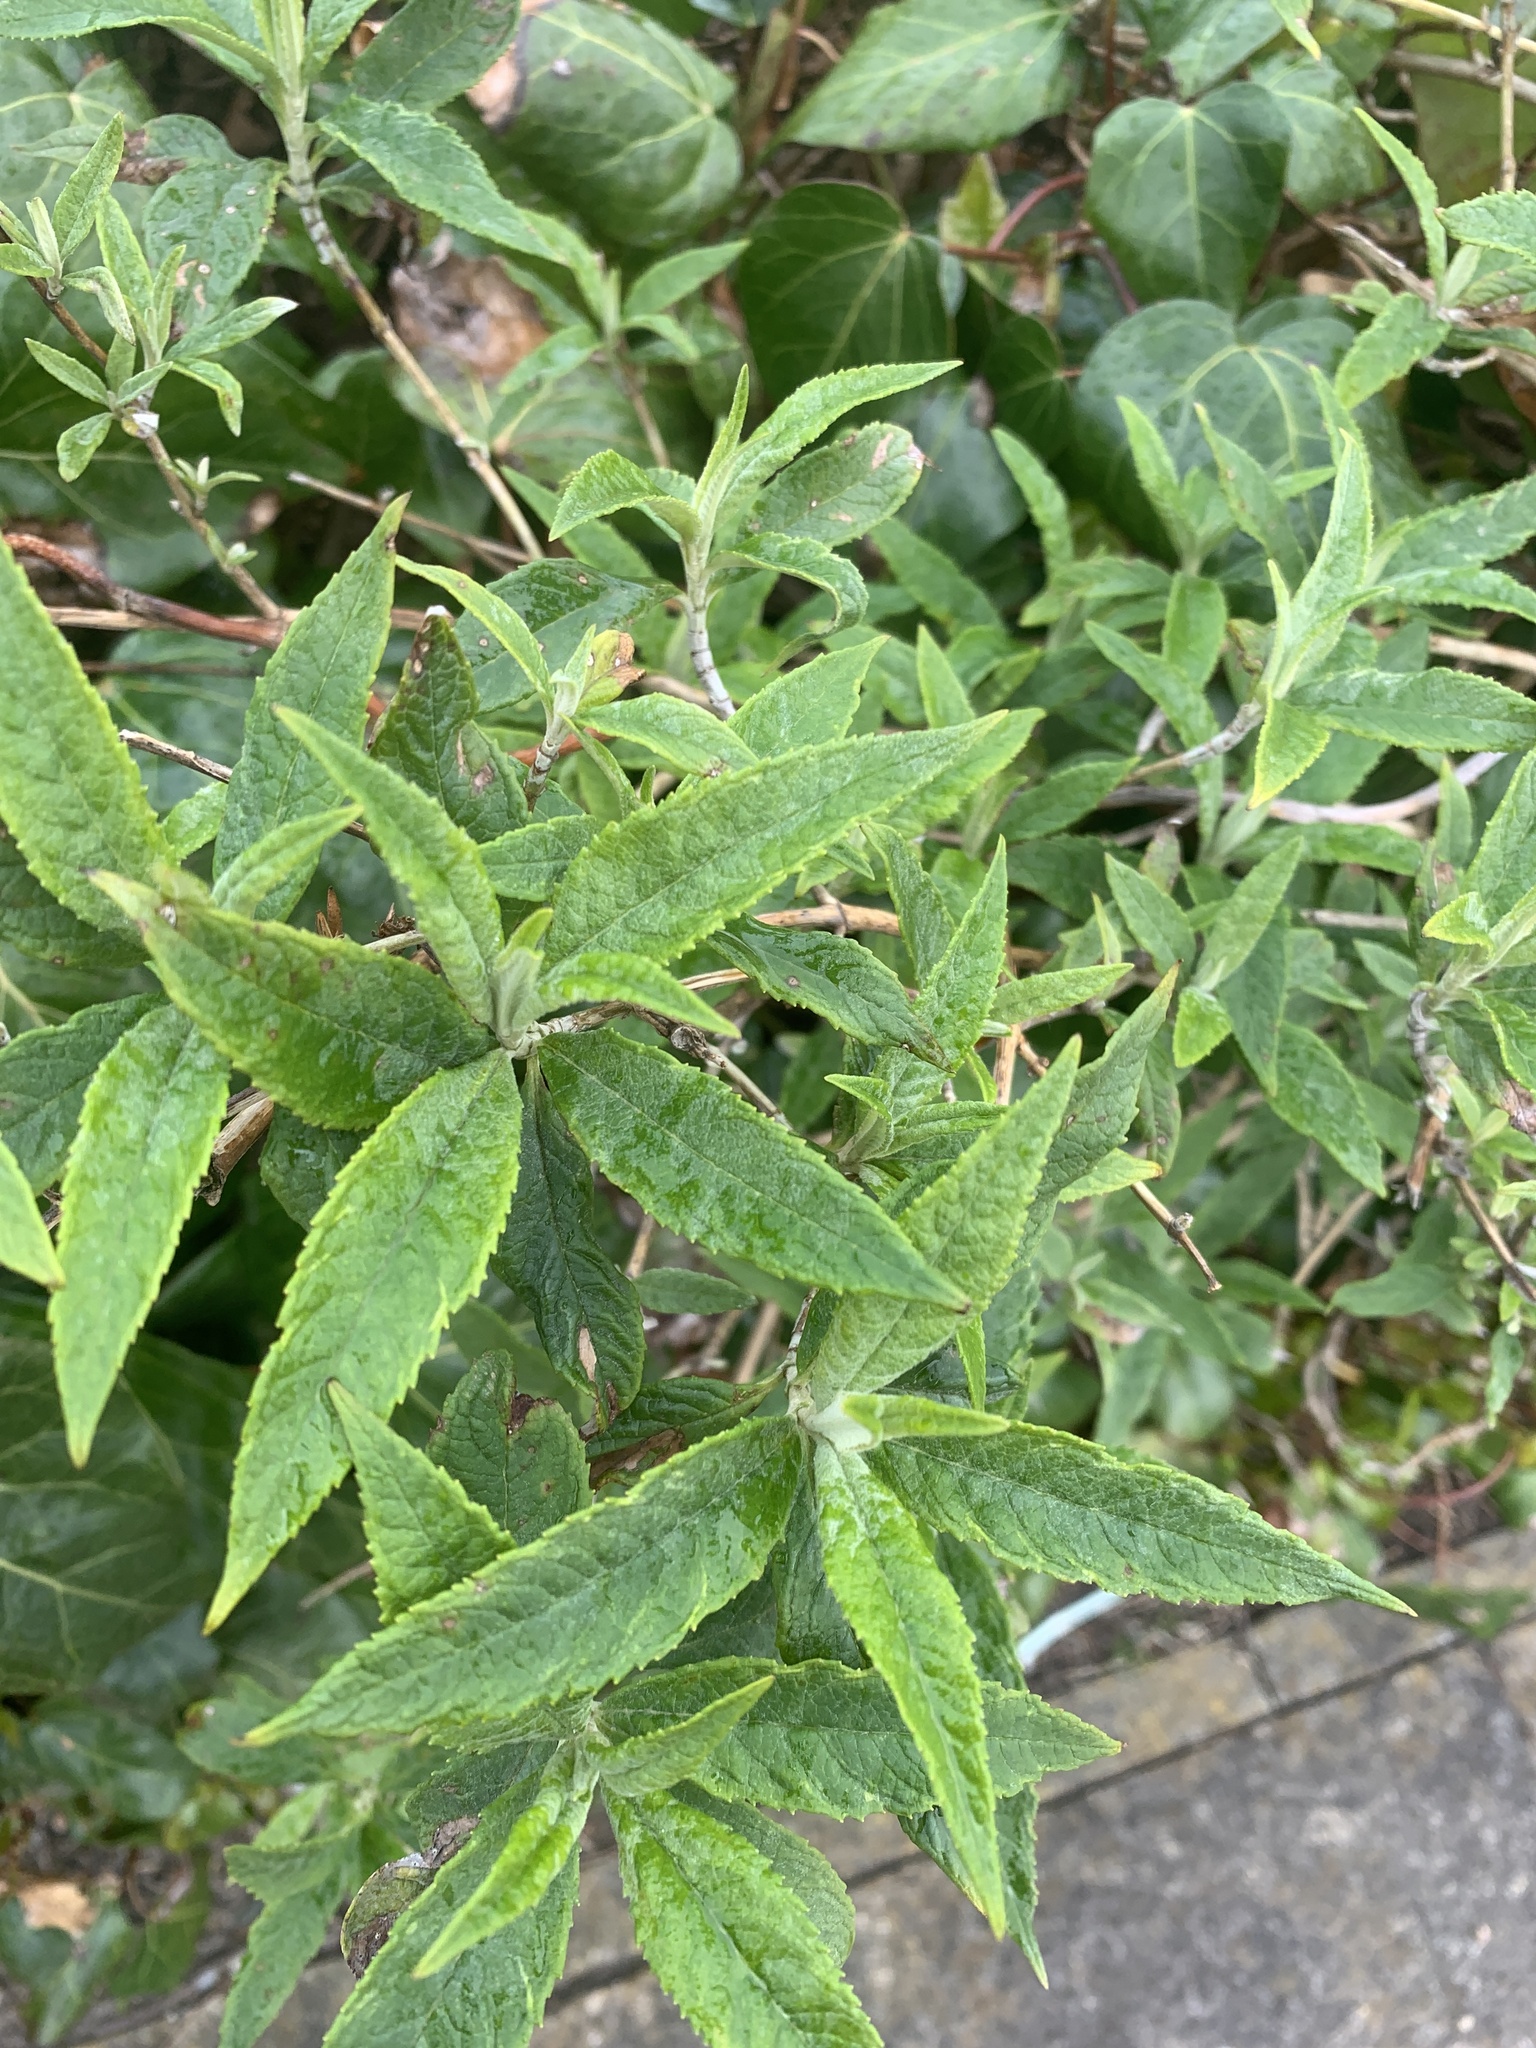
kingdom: Plantae
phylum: Tracheophyta
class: Magnoliopsida
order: Lamiales
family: Scrophulariaceae
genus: Buddleja
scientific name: Buddleja davidii
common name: Butterfly-bush
